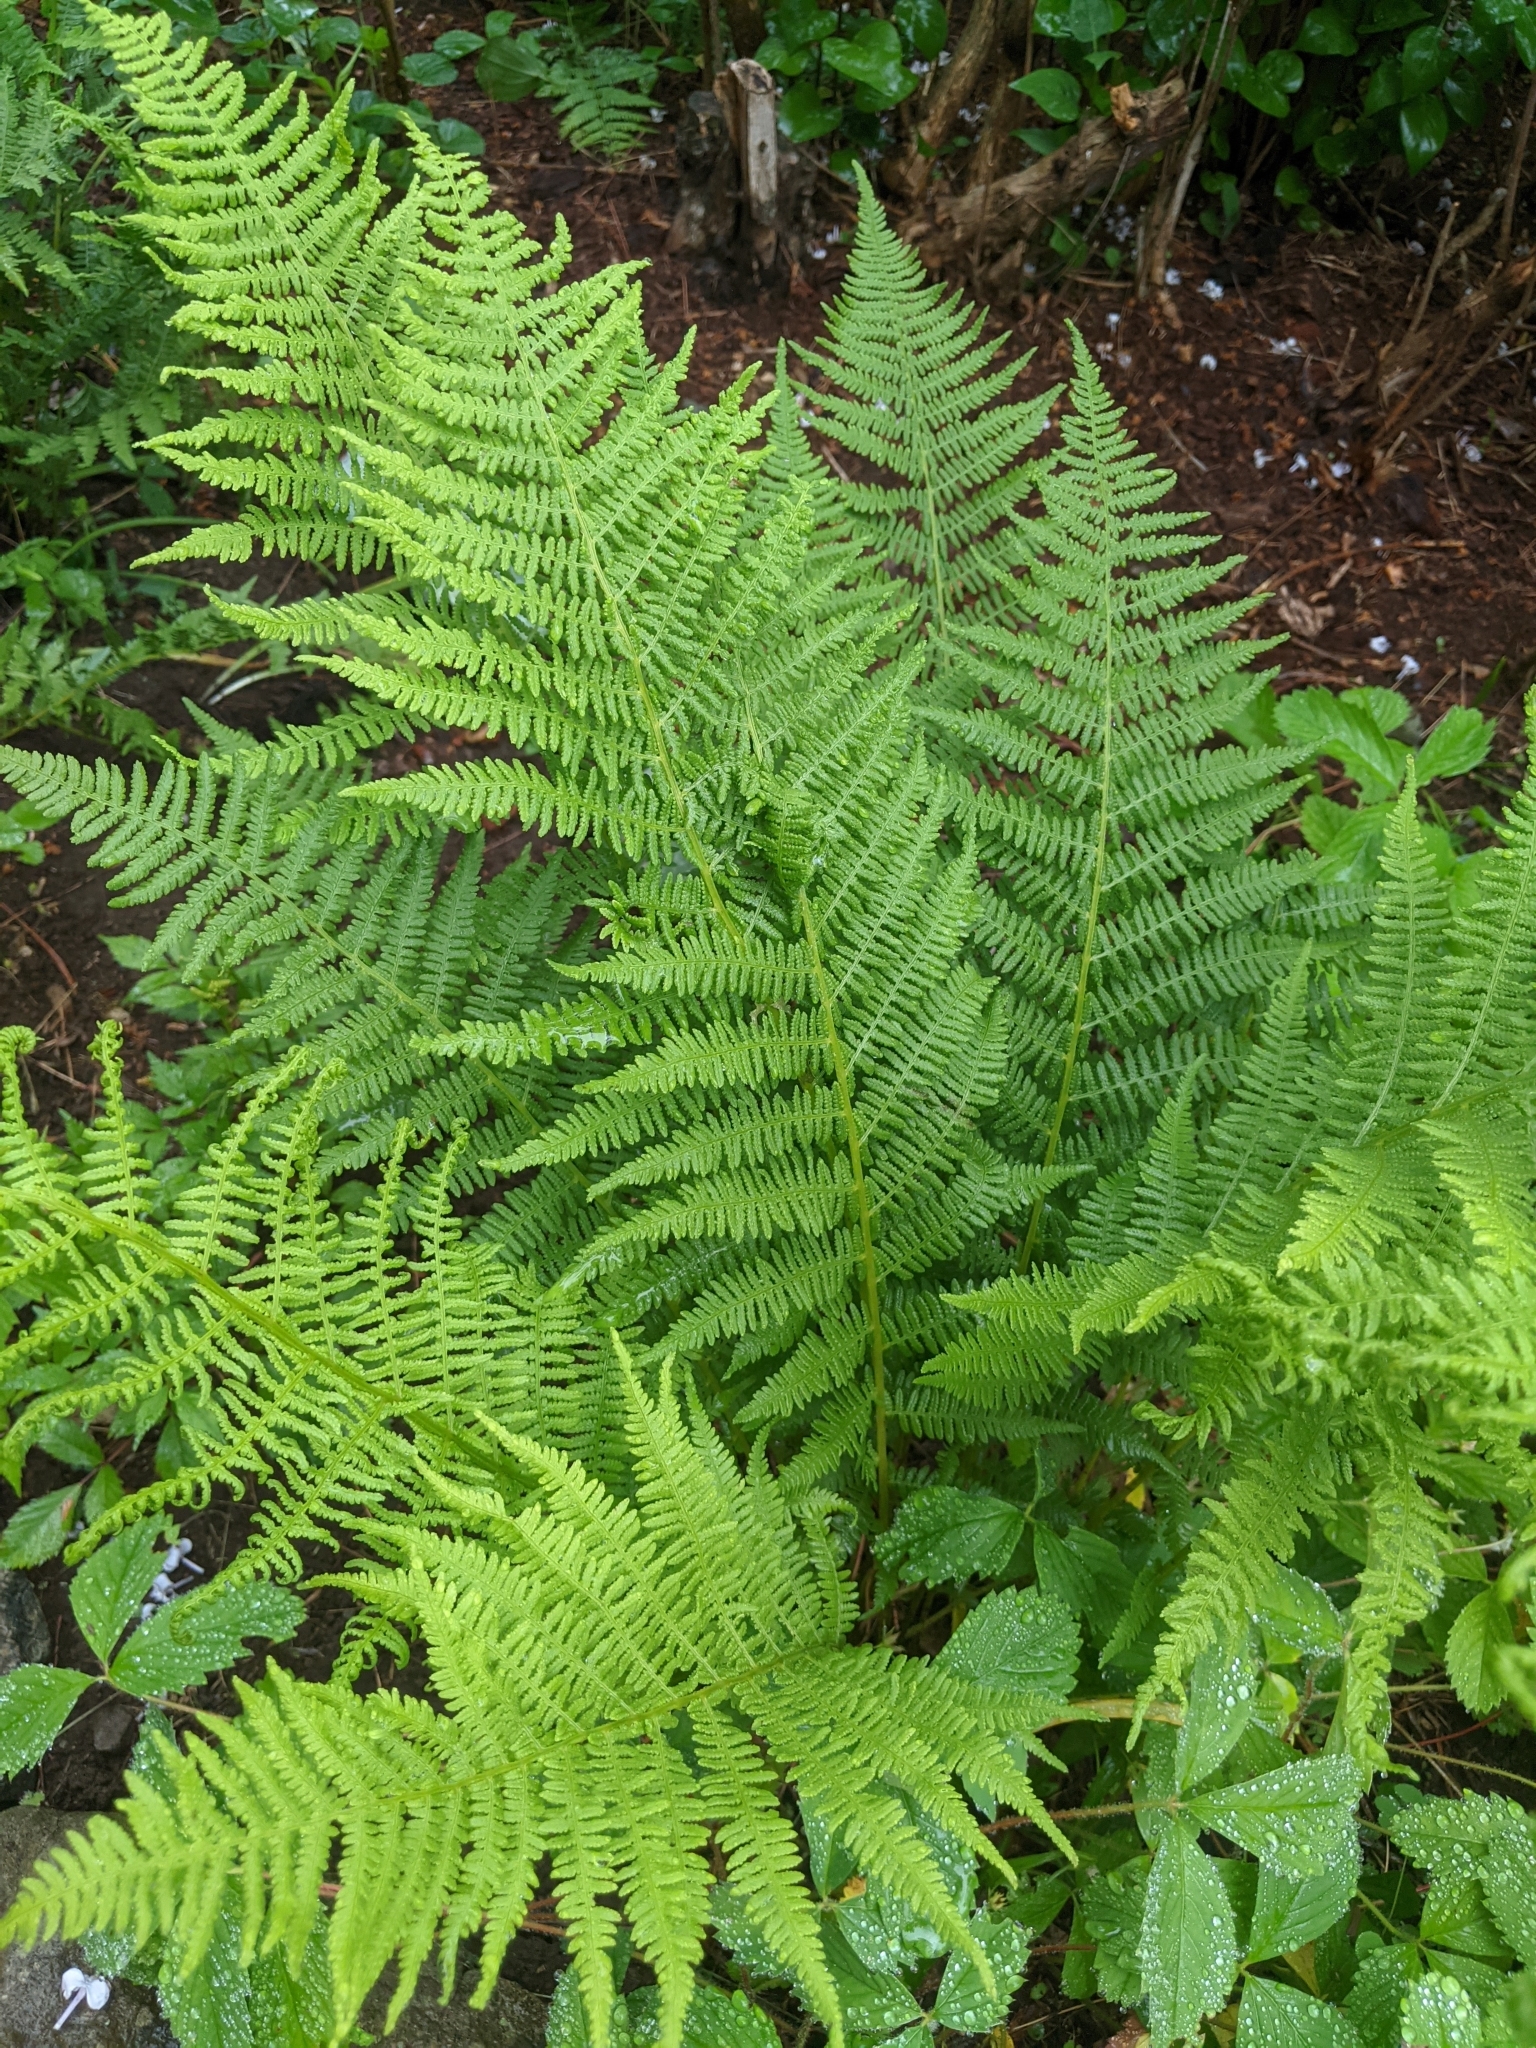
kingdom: Plantae
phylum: Tracheophyta
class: Polypodiopsida
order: Polypodiales
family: Athyriaceae
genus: Athyrium
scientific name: Athyrium angustum
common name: Northern lady fern
